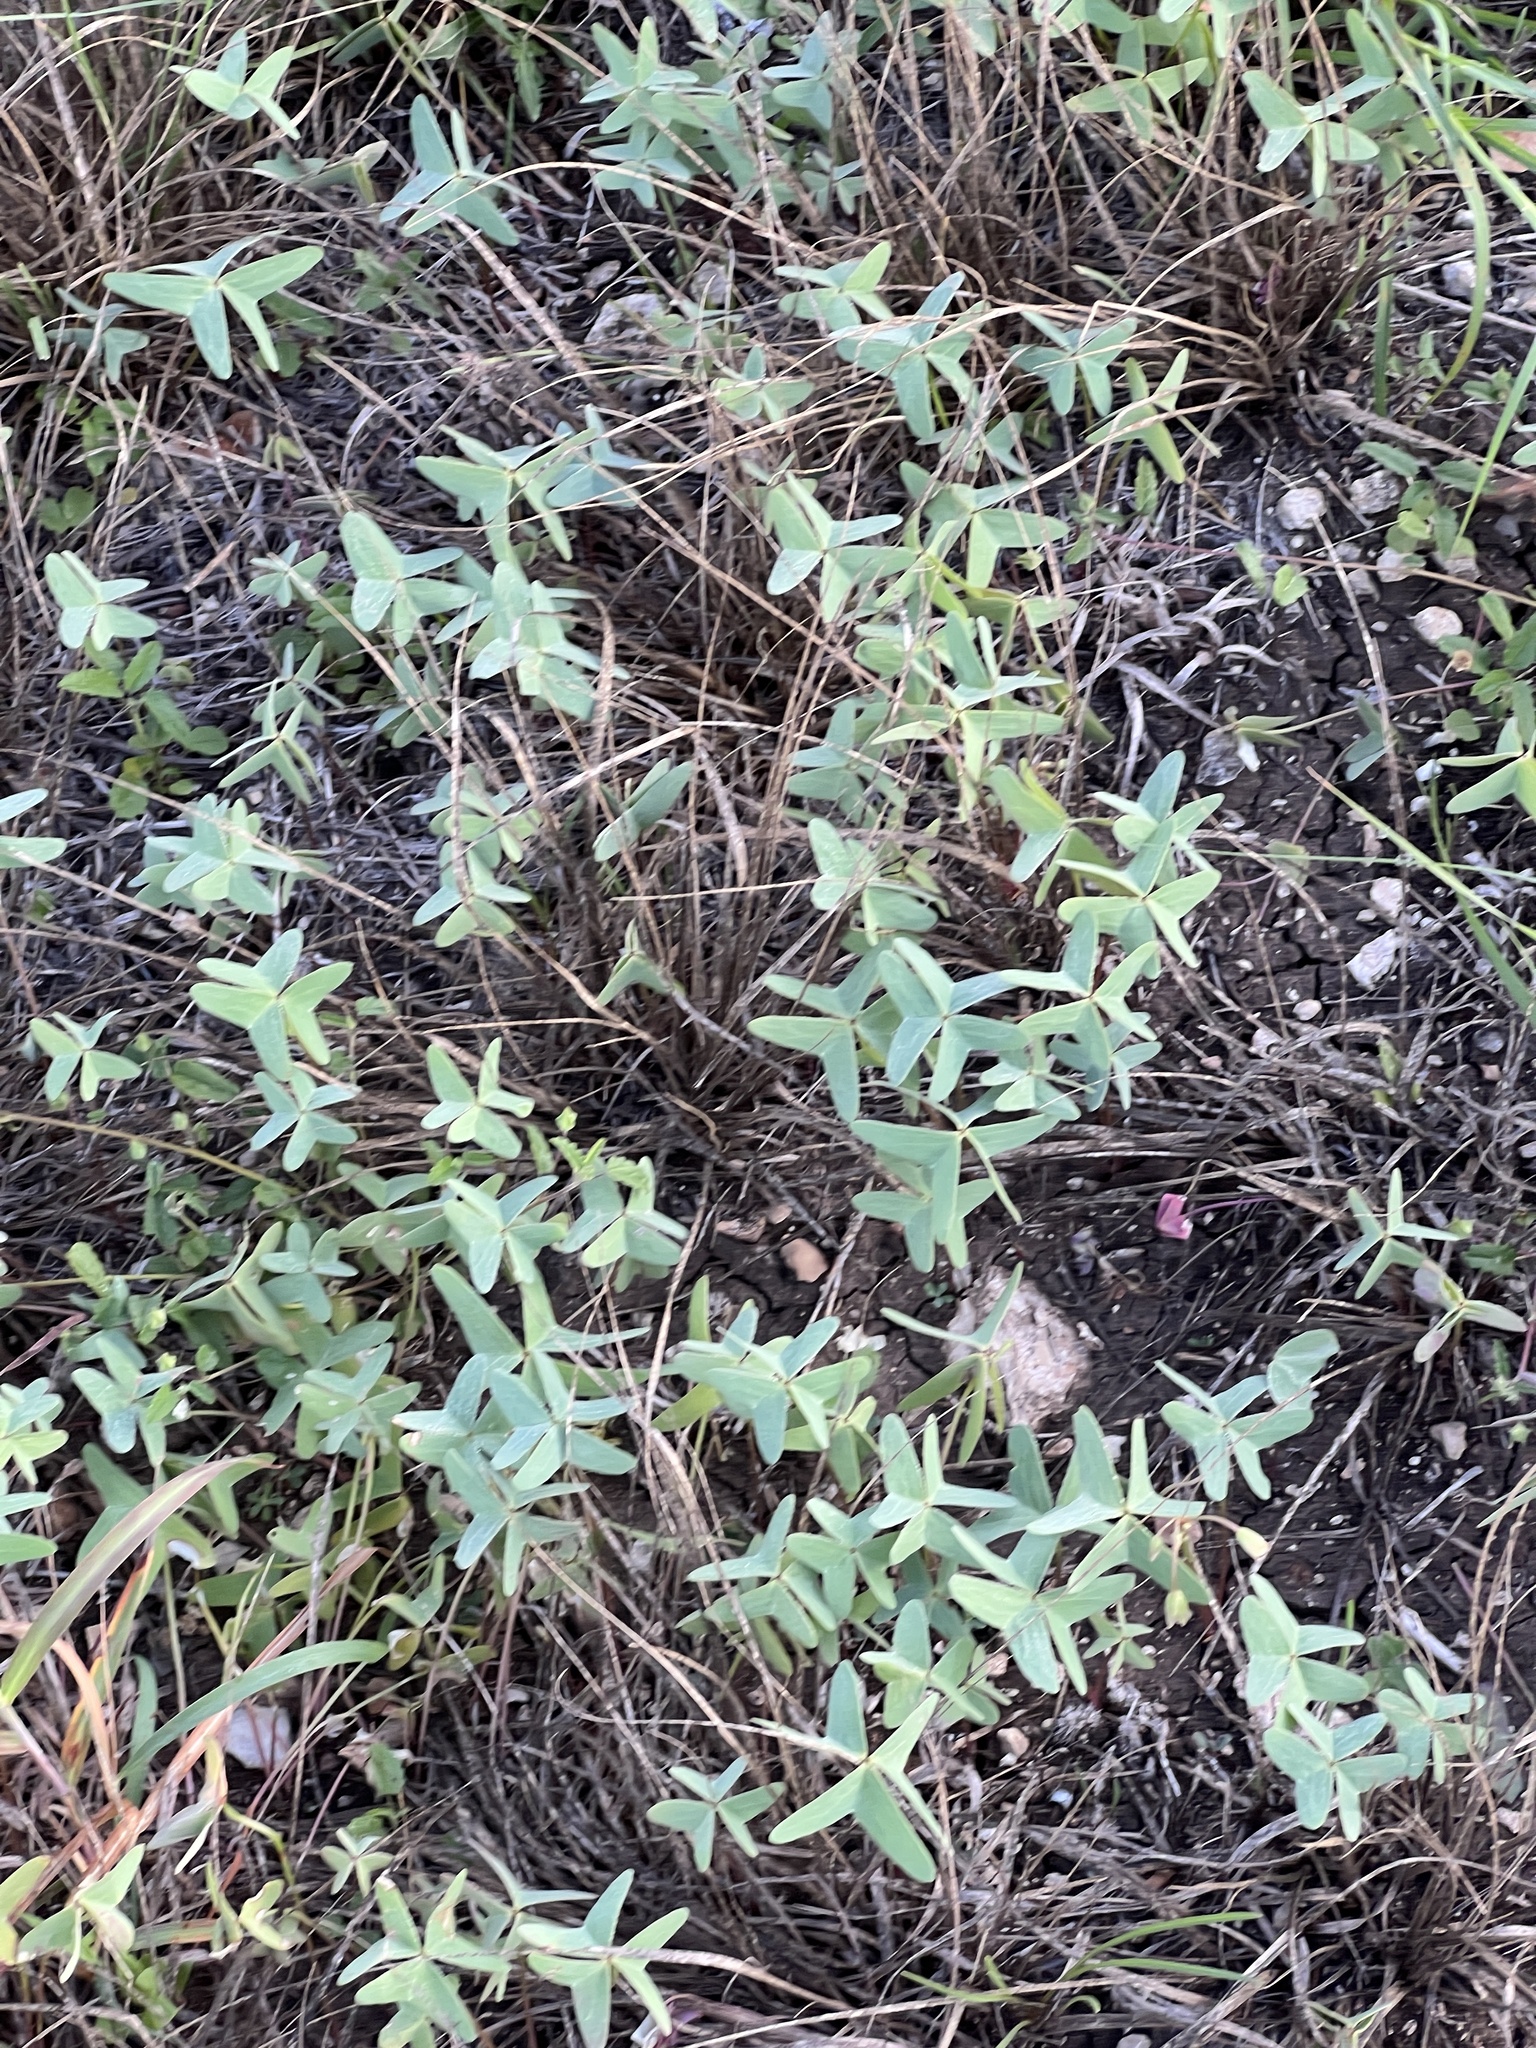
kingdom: Plantae
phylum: Tracheophyta
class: Magnoliopsida
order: Oxalidales
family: Oxalidaceae
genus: Oxalis
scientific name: Oxalis drummondii
